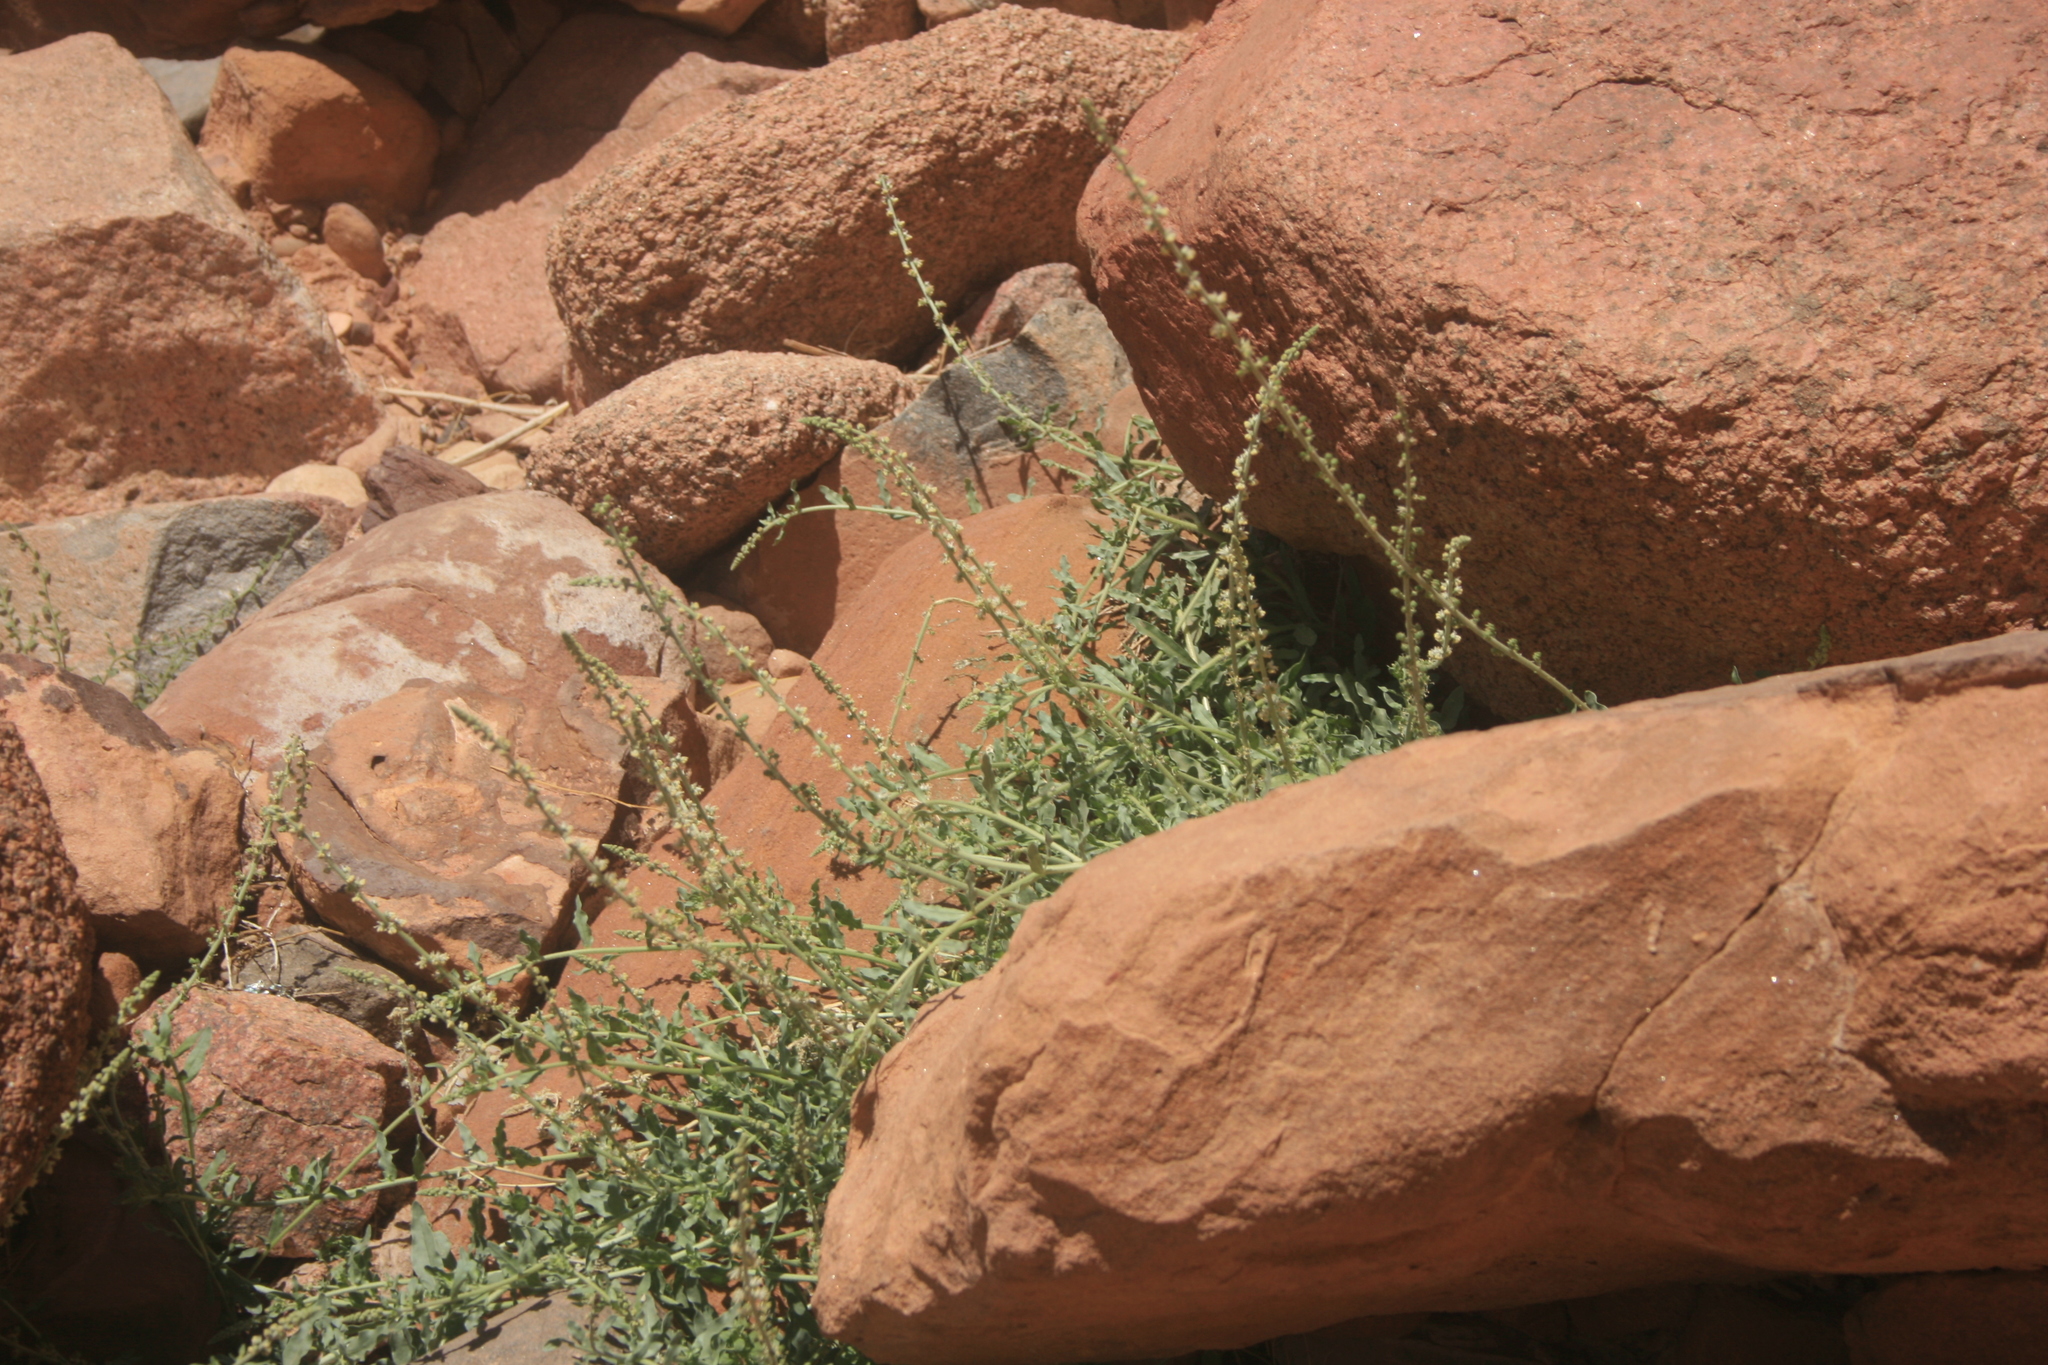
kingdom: Plantae
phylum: Tracheophyta
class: Magnoliopsida
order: Brassicales
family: Resedaceae
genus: Caylusea
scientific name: Caylusea hexagyna
